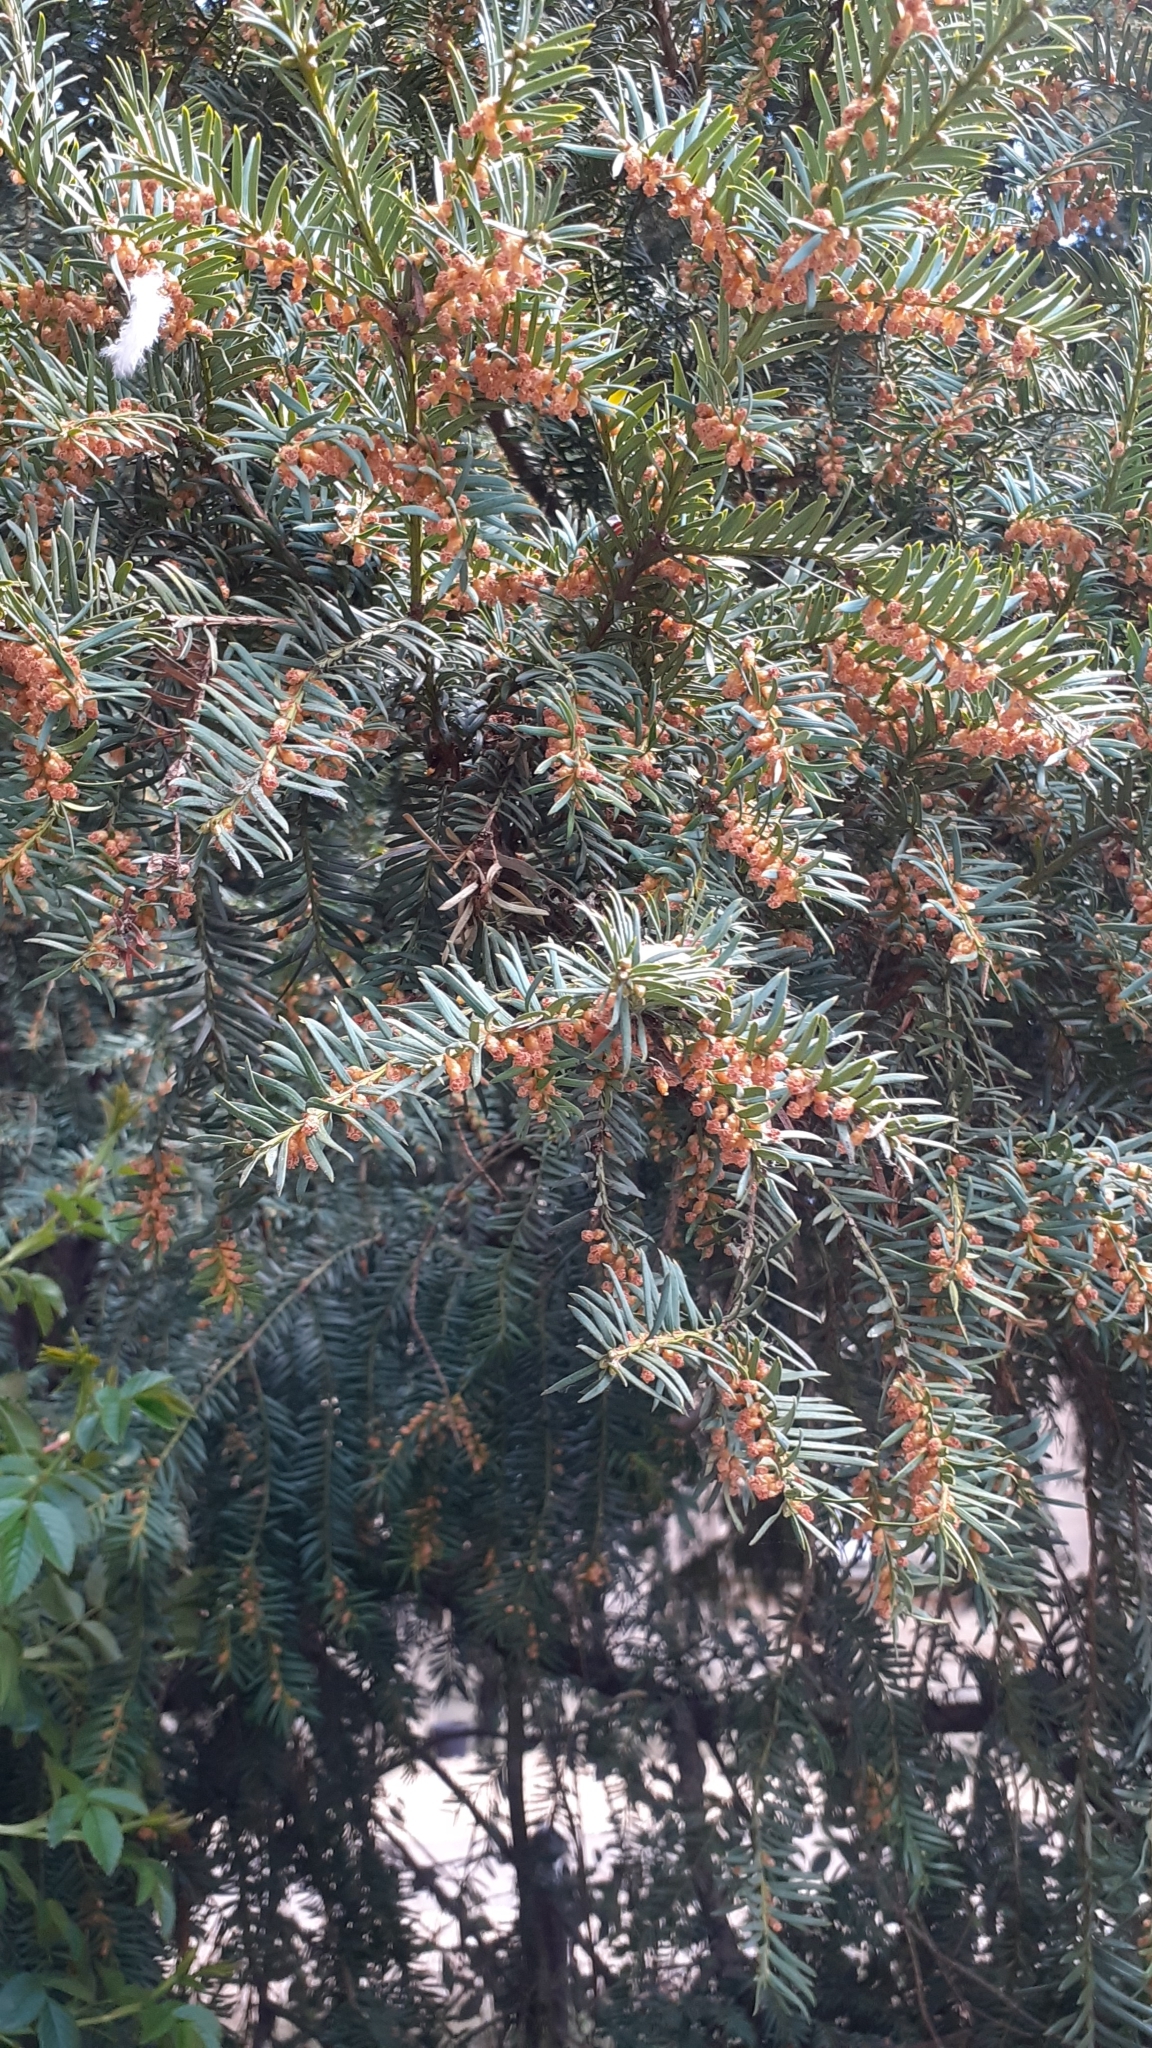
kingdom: Plantae
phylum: Tracheophyta
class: Pinopsida
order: Pinales
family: Taxaceae
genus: Taxus
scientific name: Taxus baccata
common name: Yew
